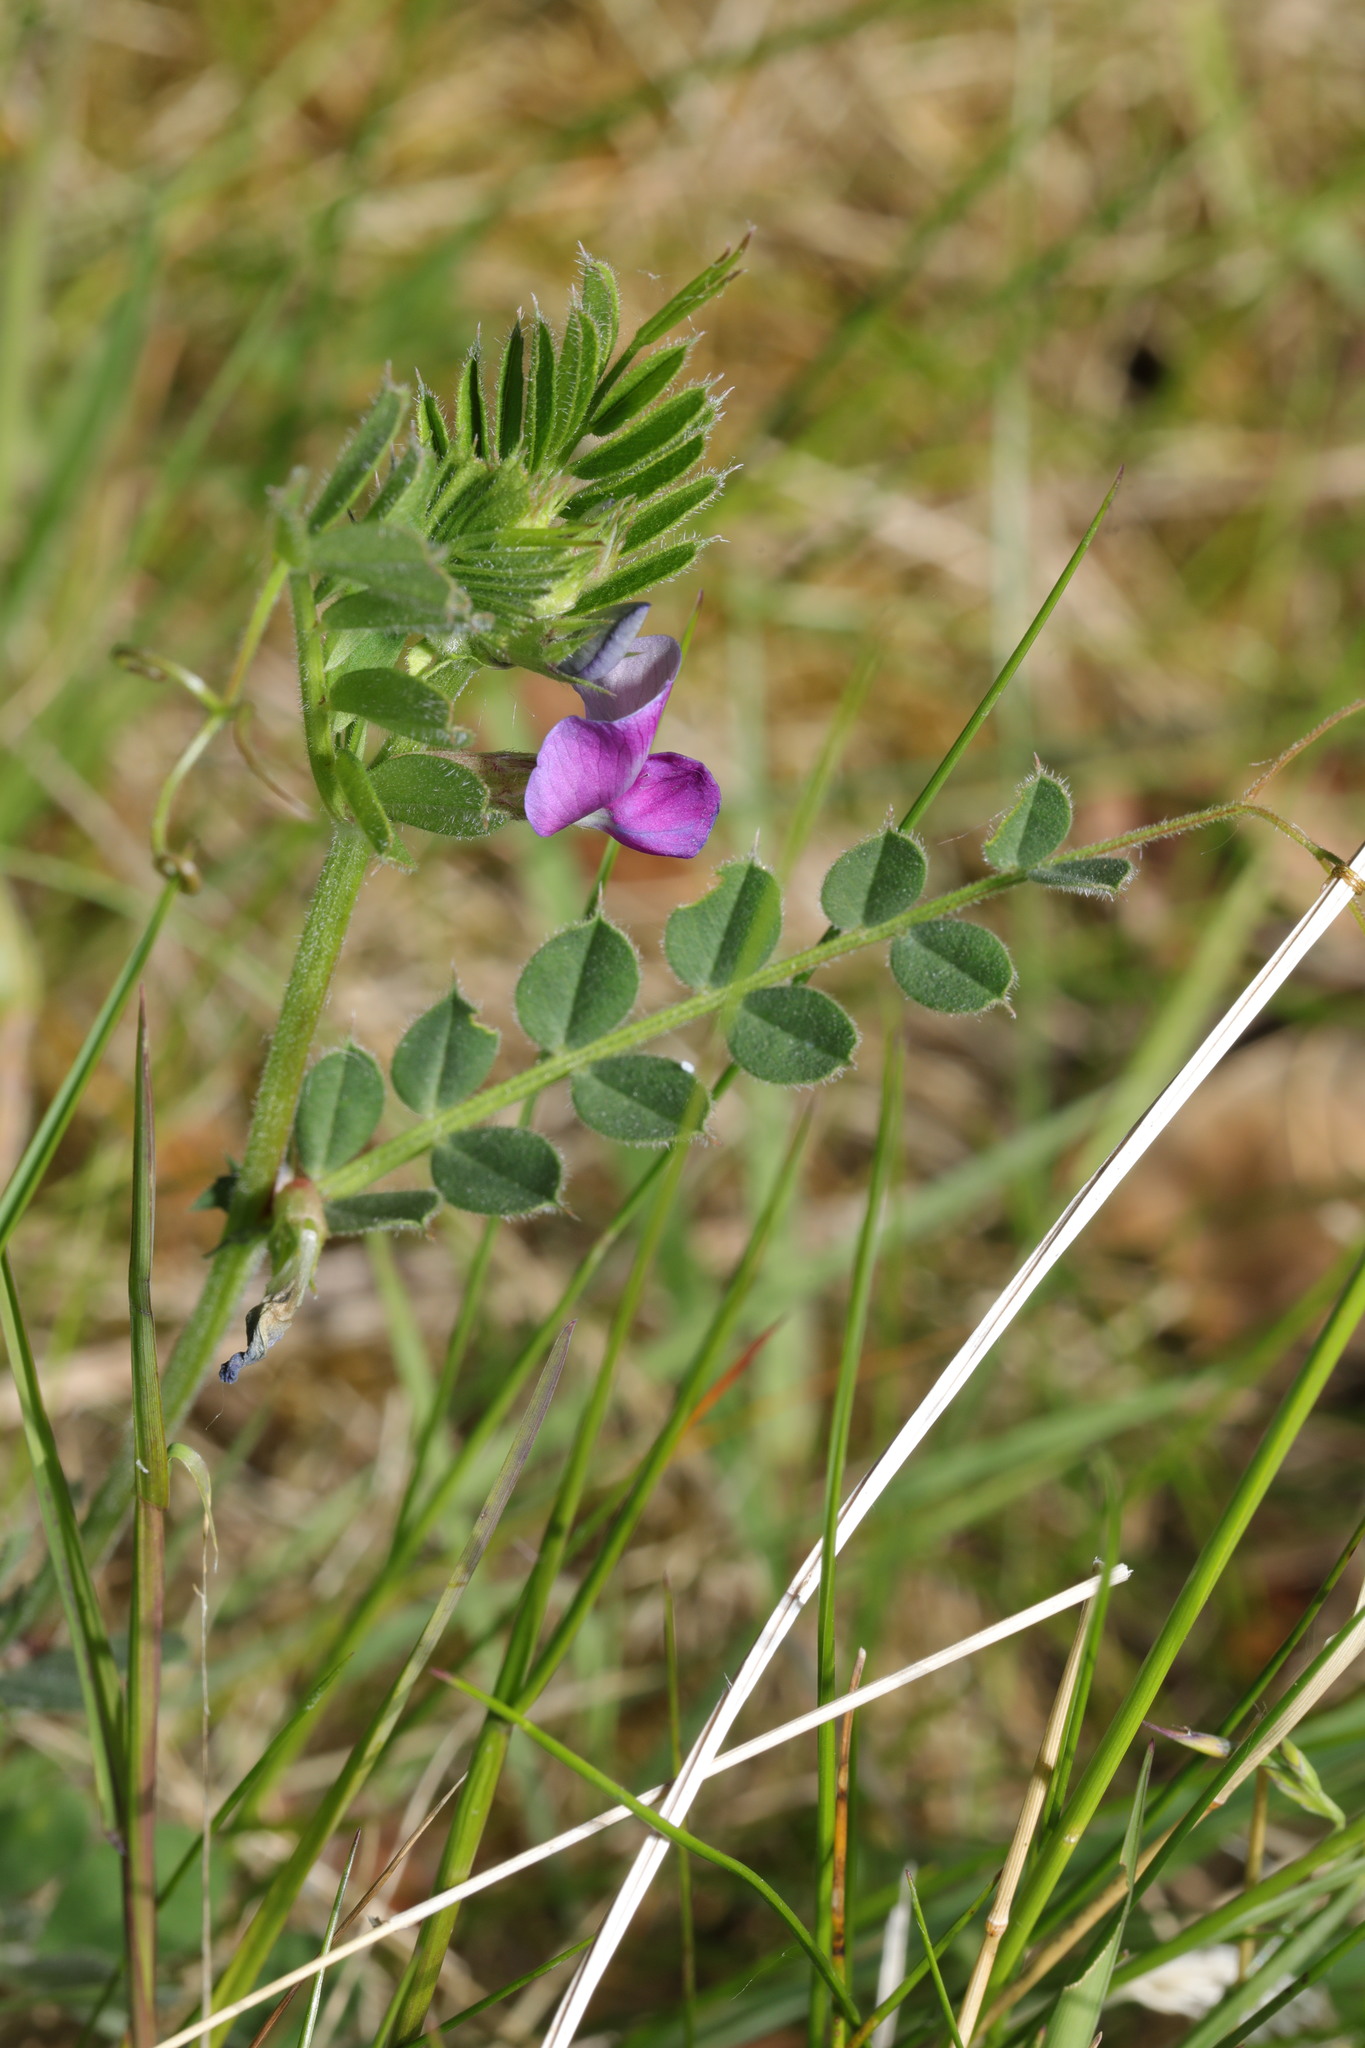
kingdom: Plantae
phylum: Tracheophyta
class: Magnoliopsida
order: Fabales
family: Fabaceae
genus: Vicia
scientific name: Vicia sativa
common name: Garden vetch
